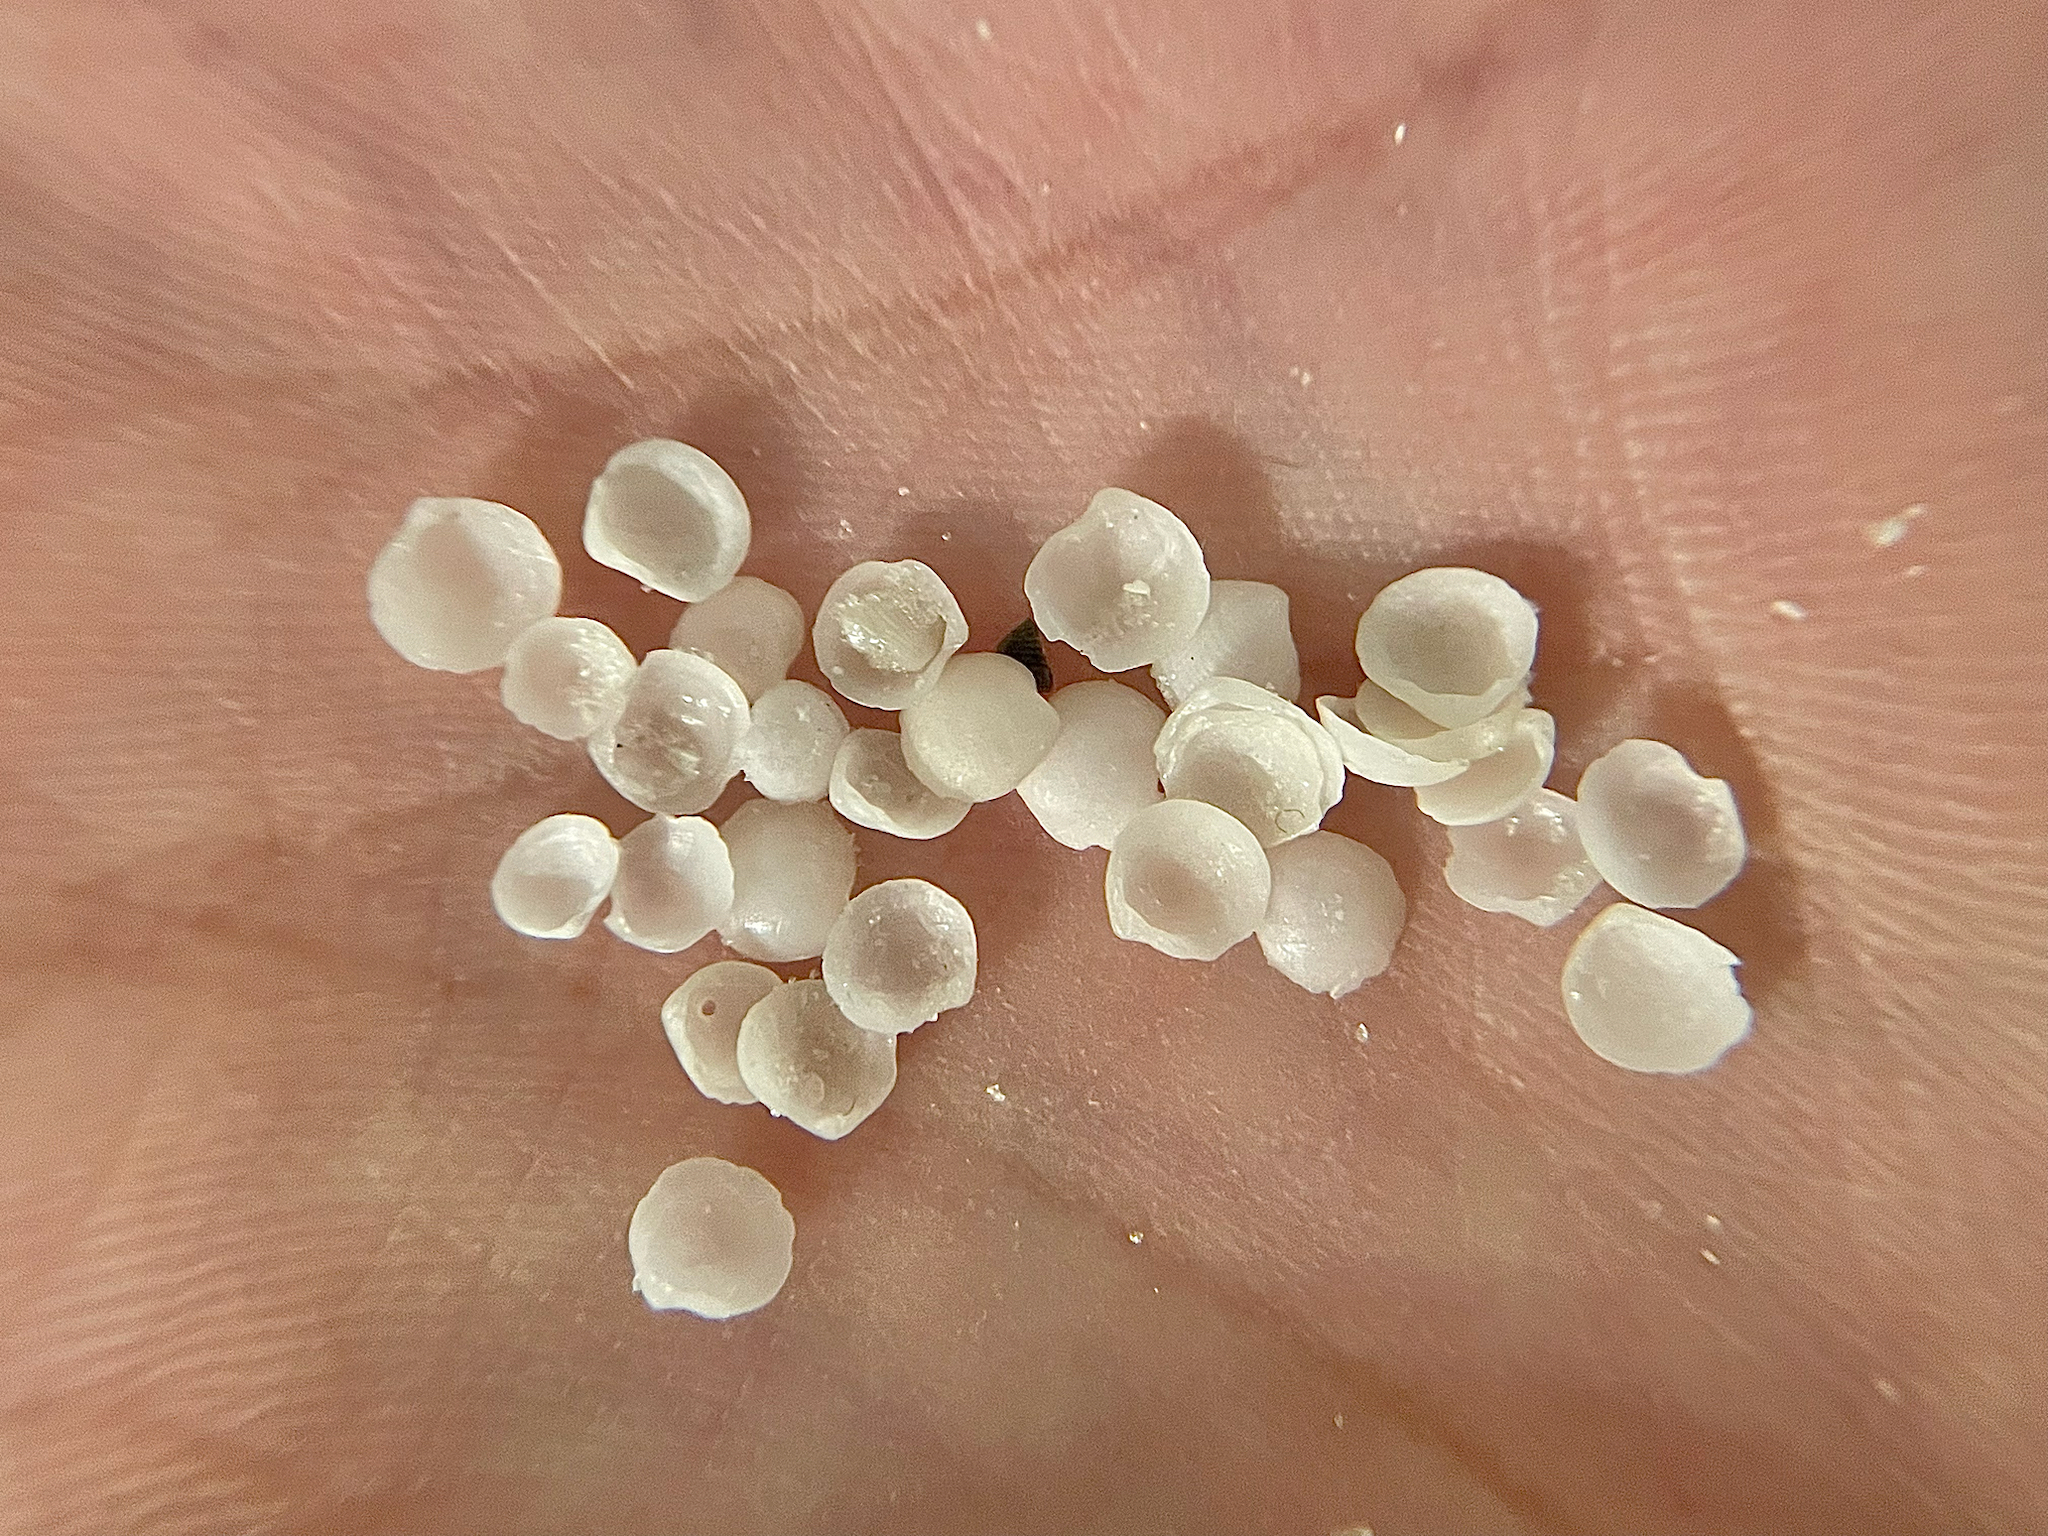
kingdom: Animalia
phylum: Mollusca
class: Bivalvia
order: Lucinida
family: Lucinidae
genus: Parvilucina
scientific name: Parvilucina crenella
